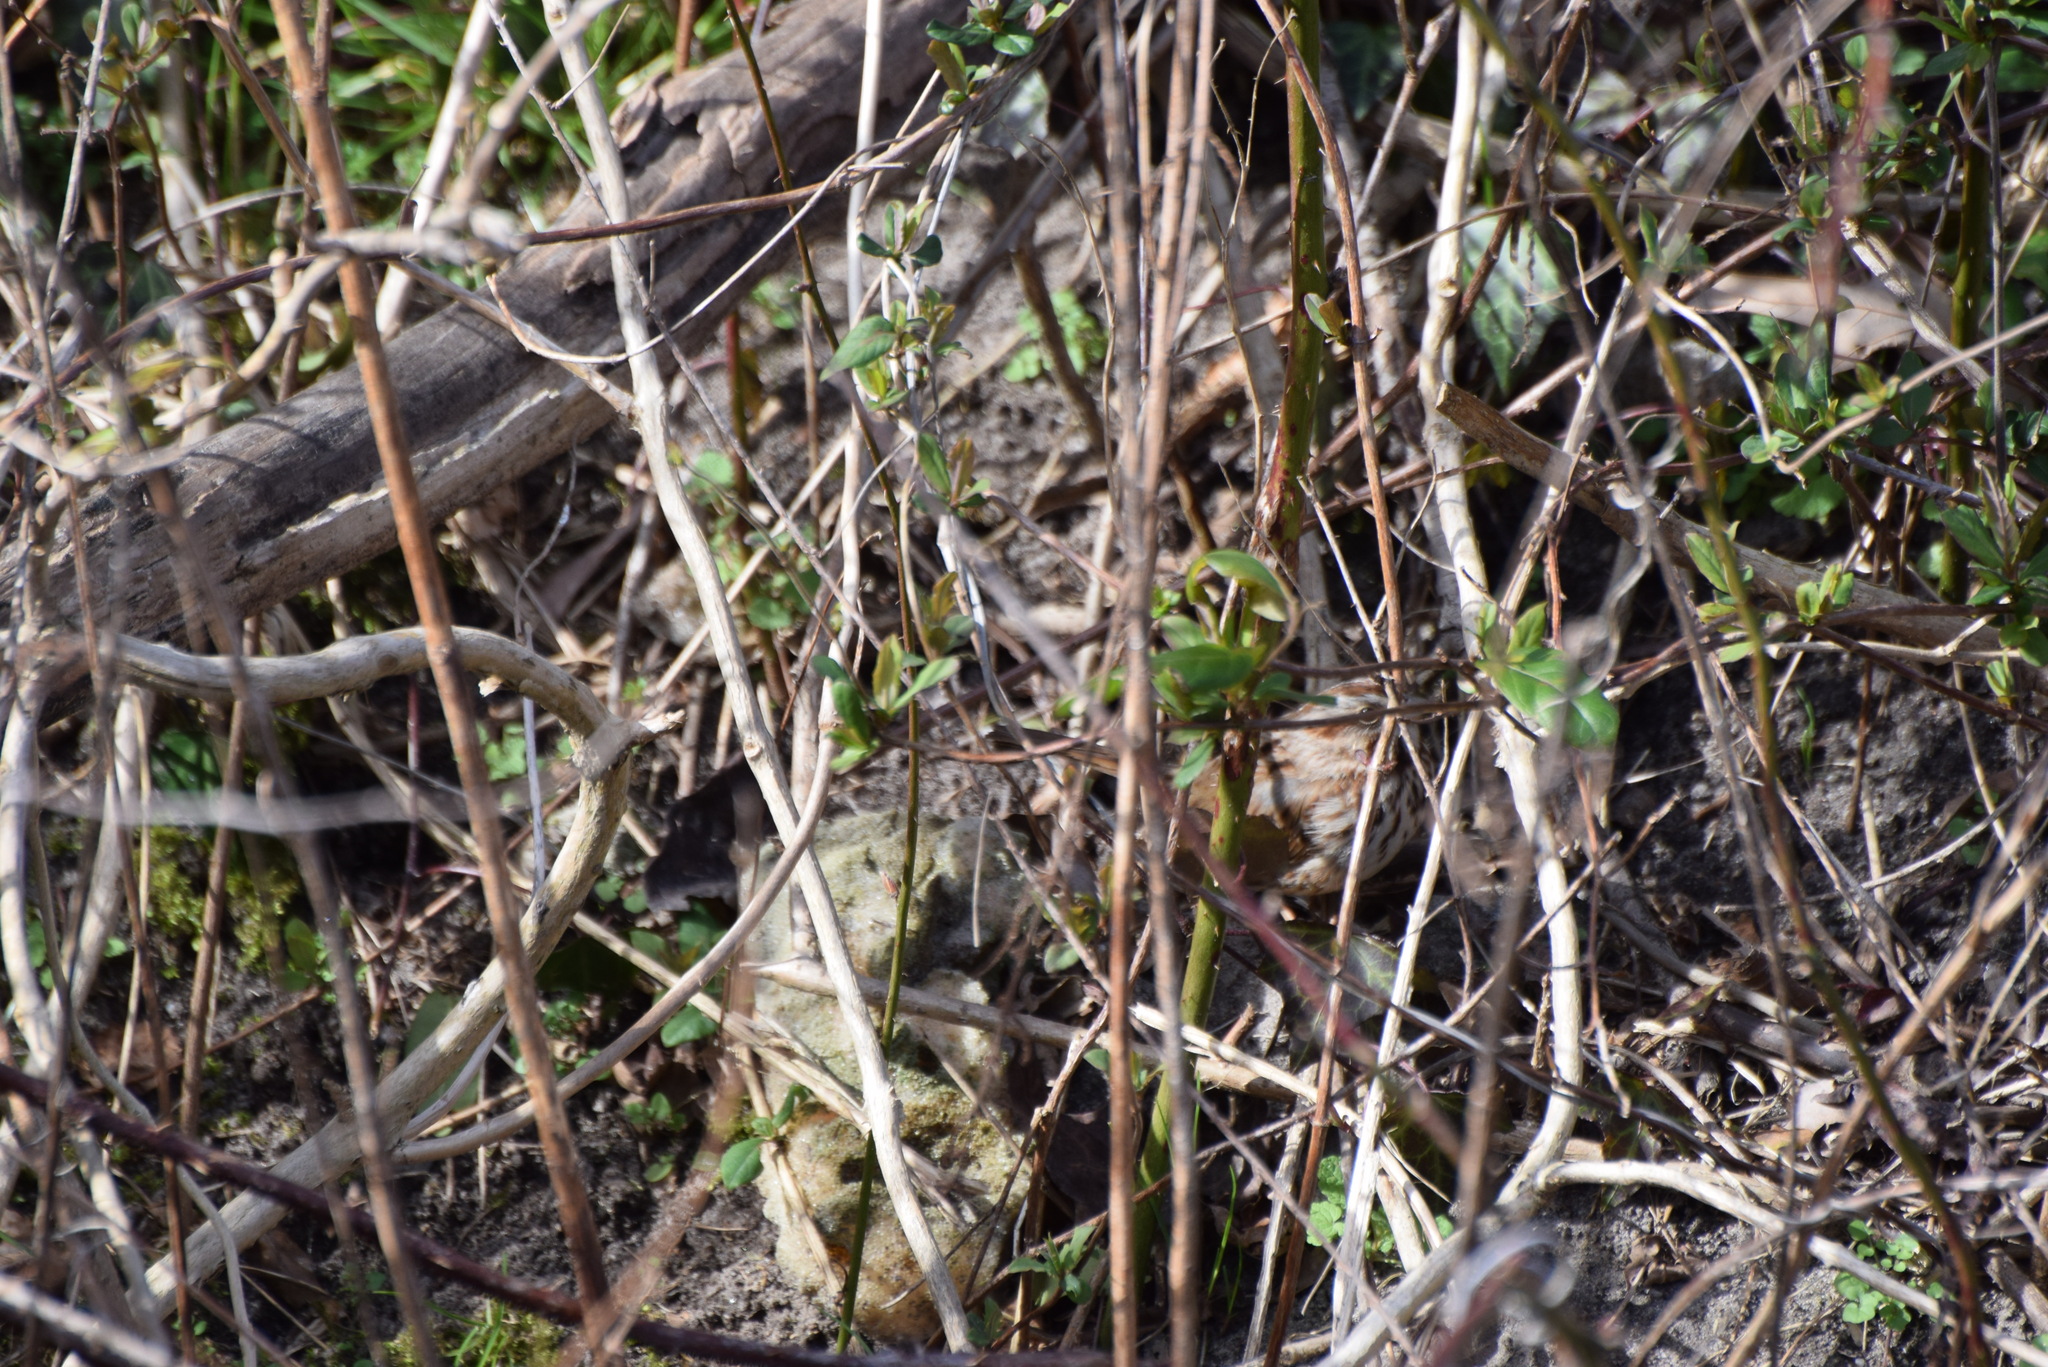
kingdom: Animalia
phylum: Chordata
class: Aves
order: Passeriformes
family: Passerellidae
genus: Melospiza
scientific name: Melospiza melodia
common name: Song sparrow
